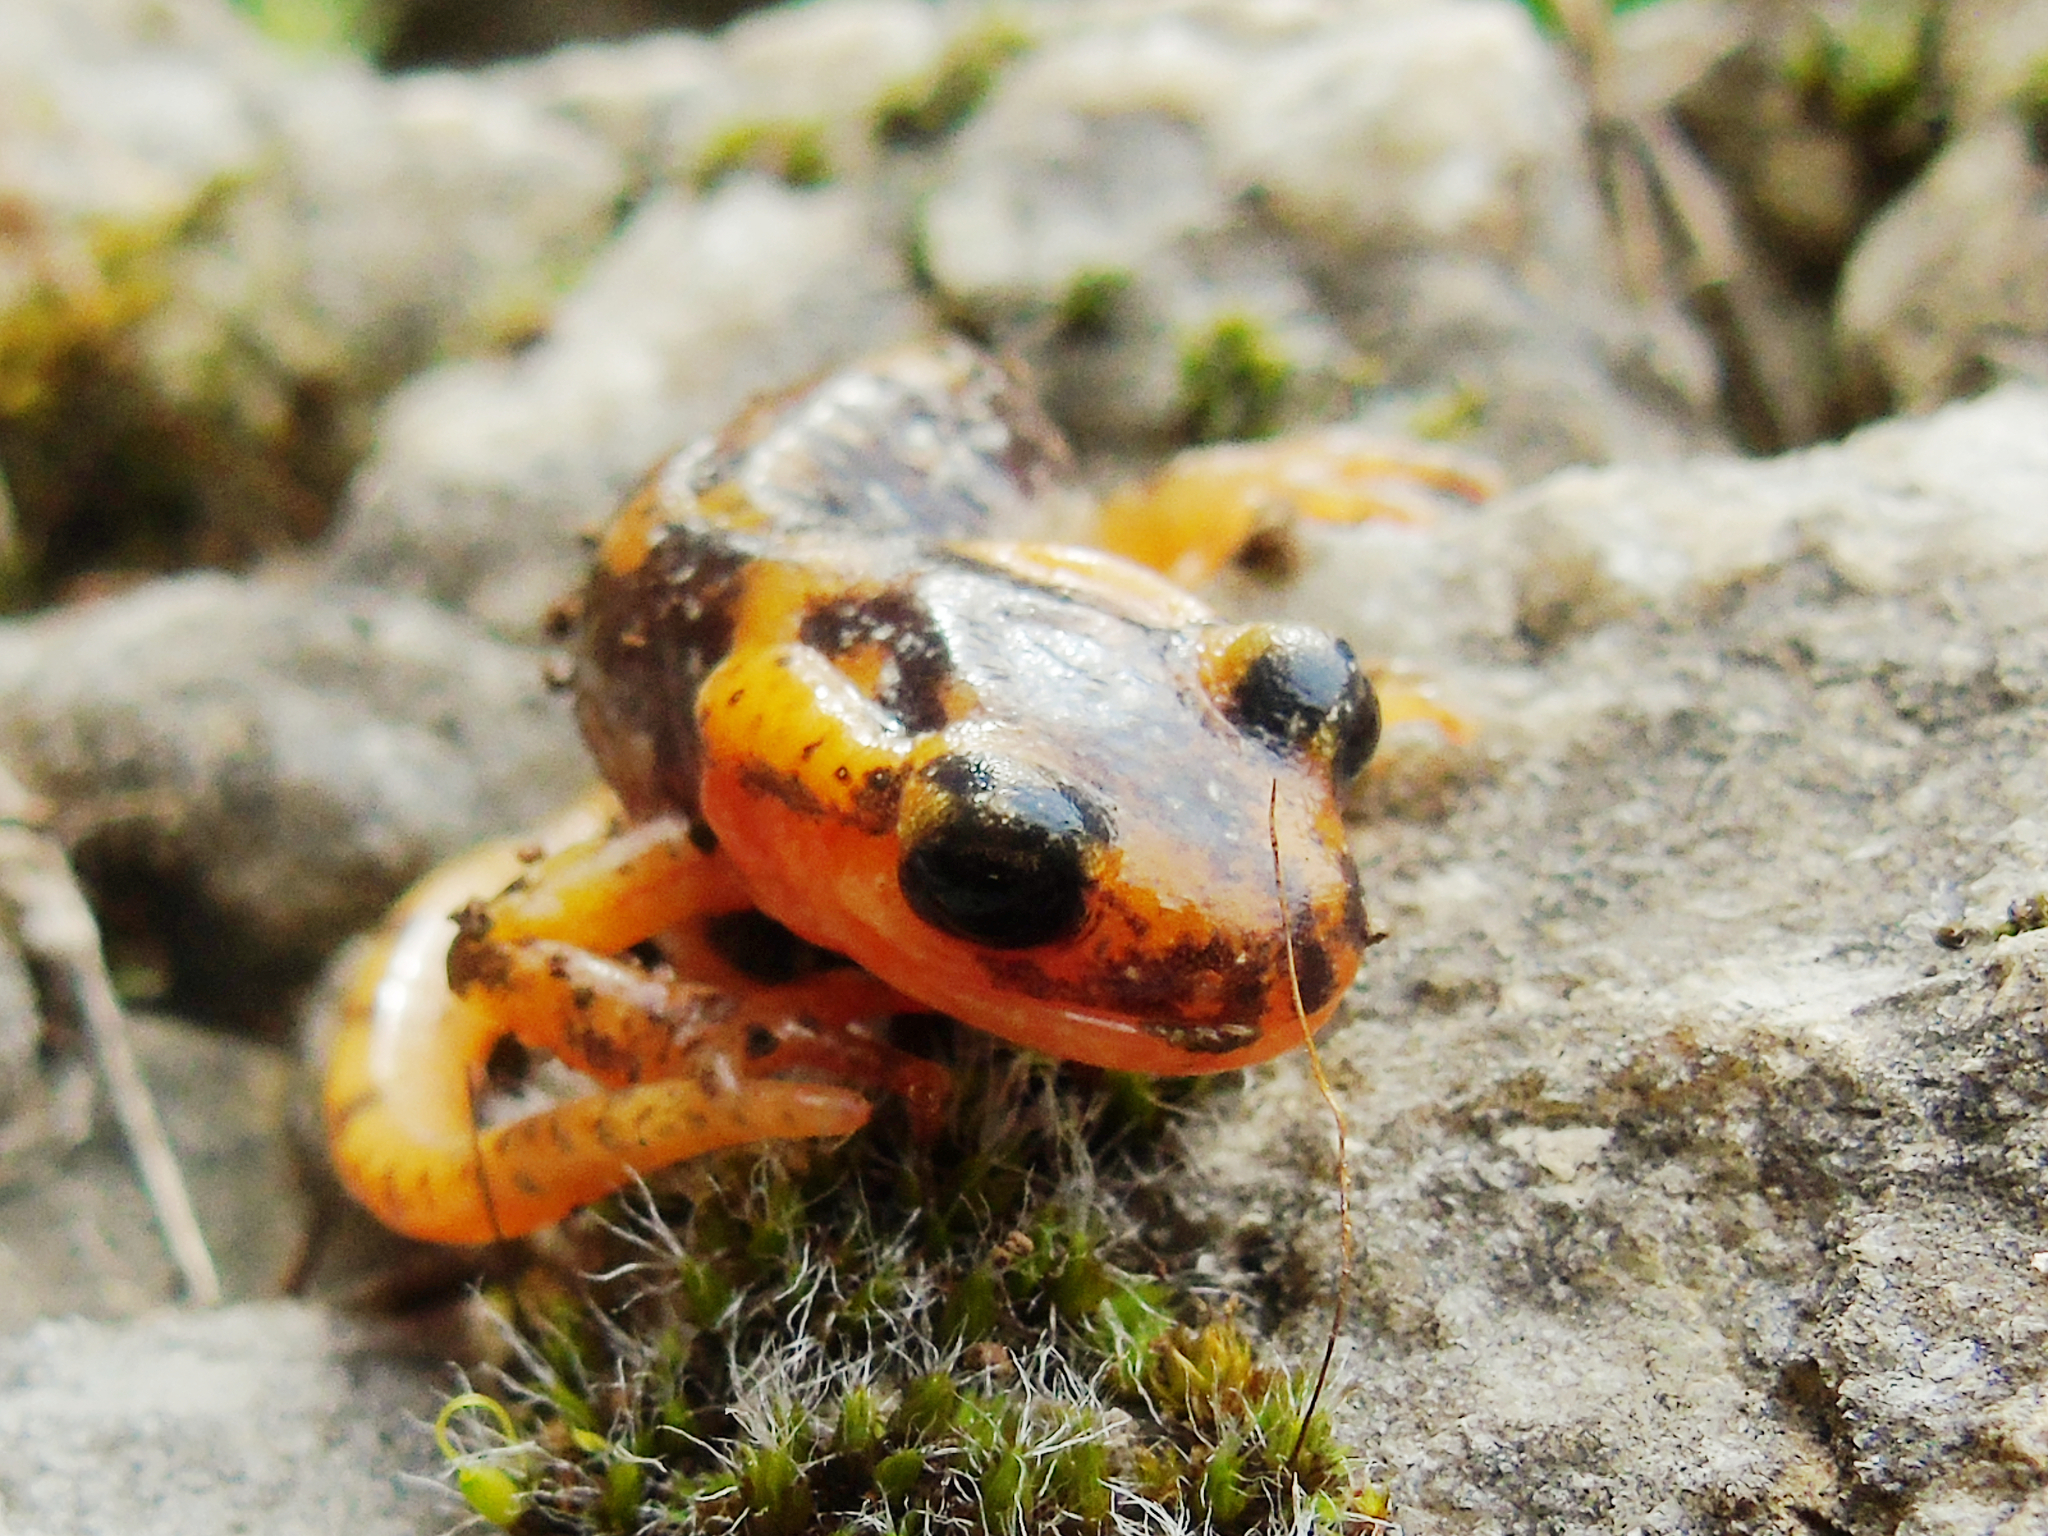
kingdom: Animalia
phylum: Chordata
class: Amphibia
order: Caudata
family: Salamandridae
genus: Lyciasalamandra
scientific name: Lyciasalamandra fazilae
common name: Fazila's salamander
